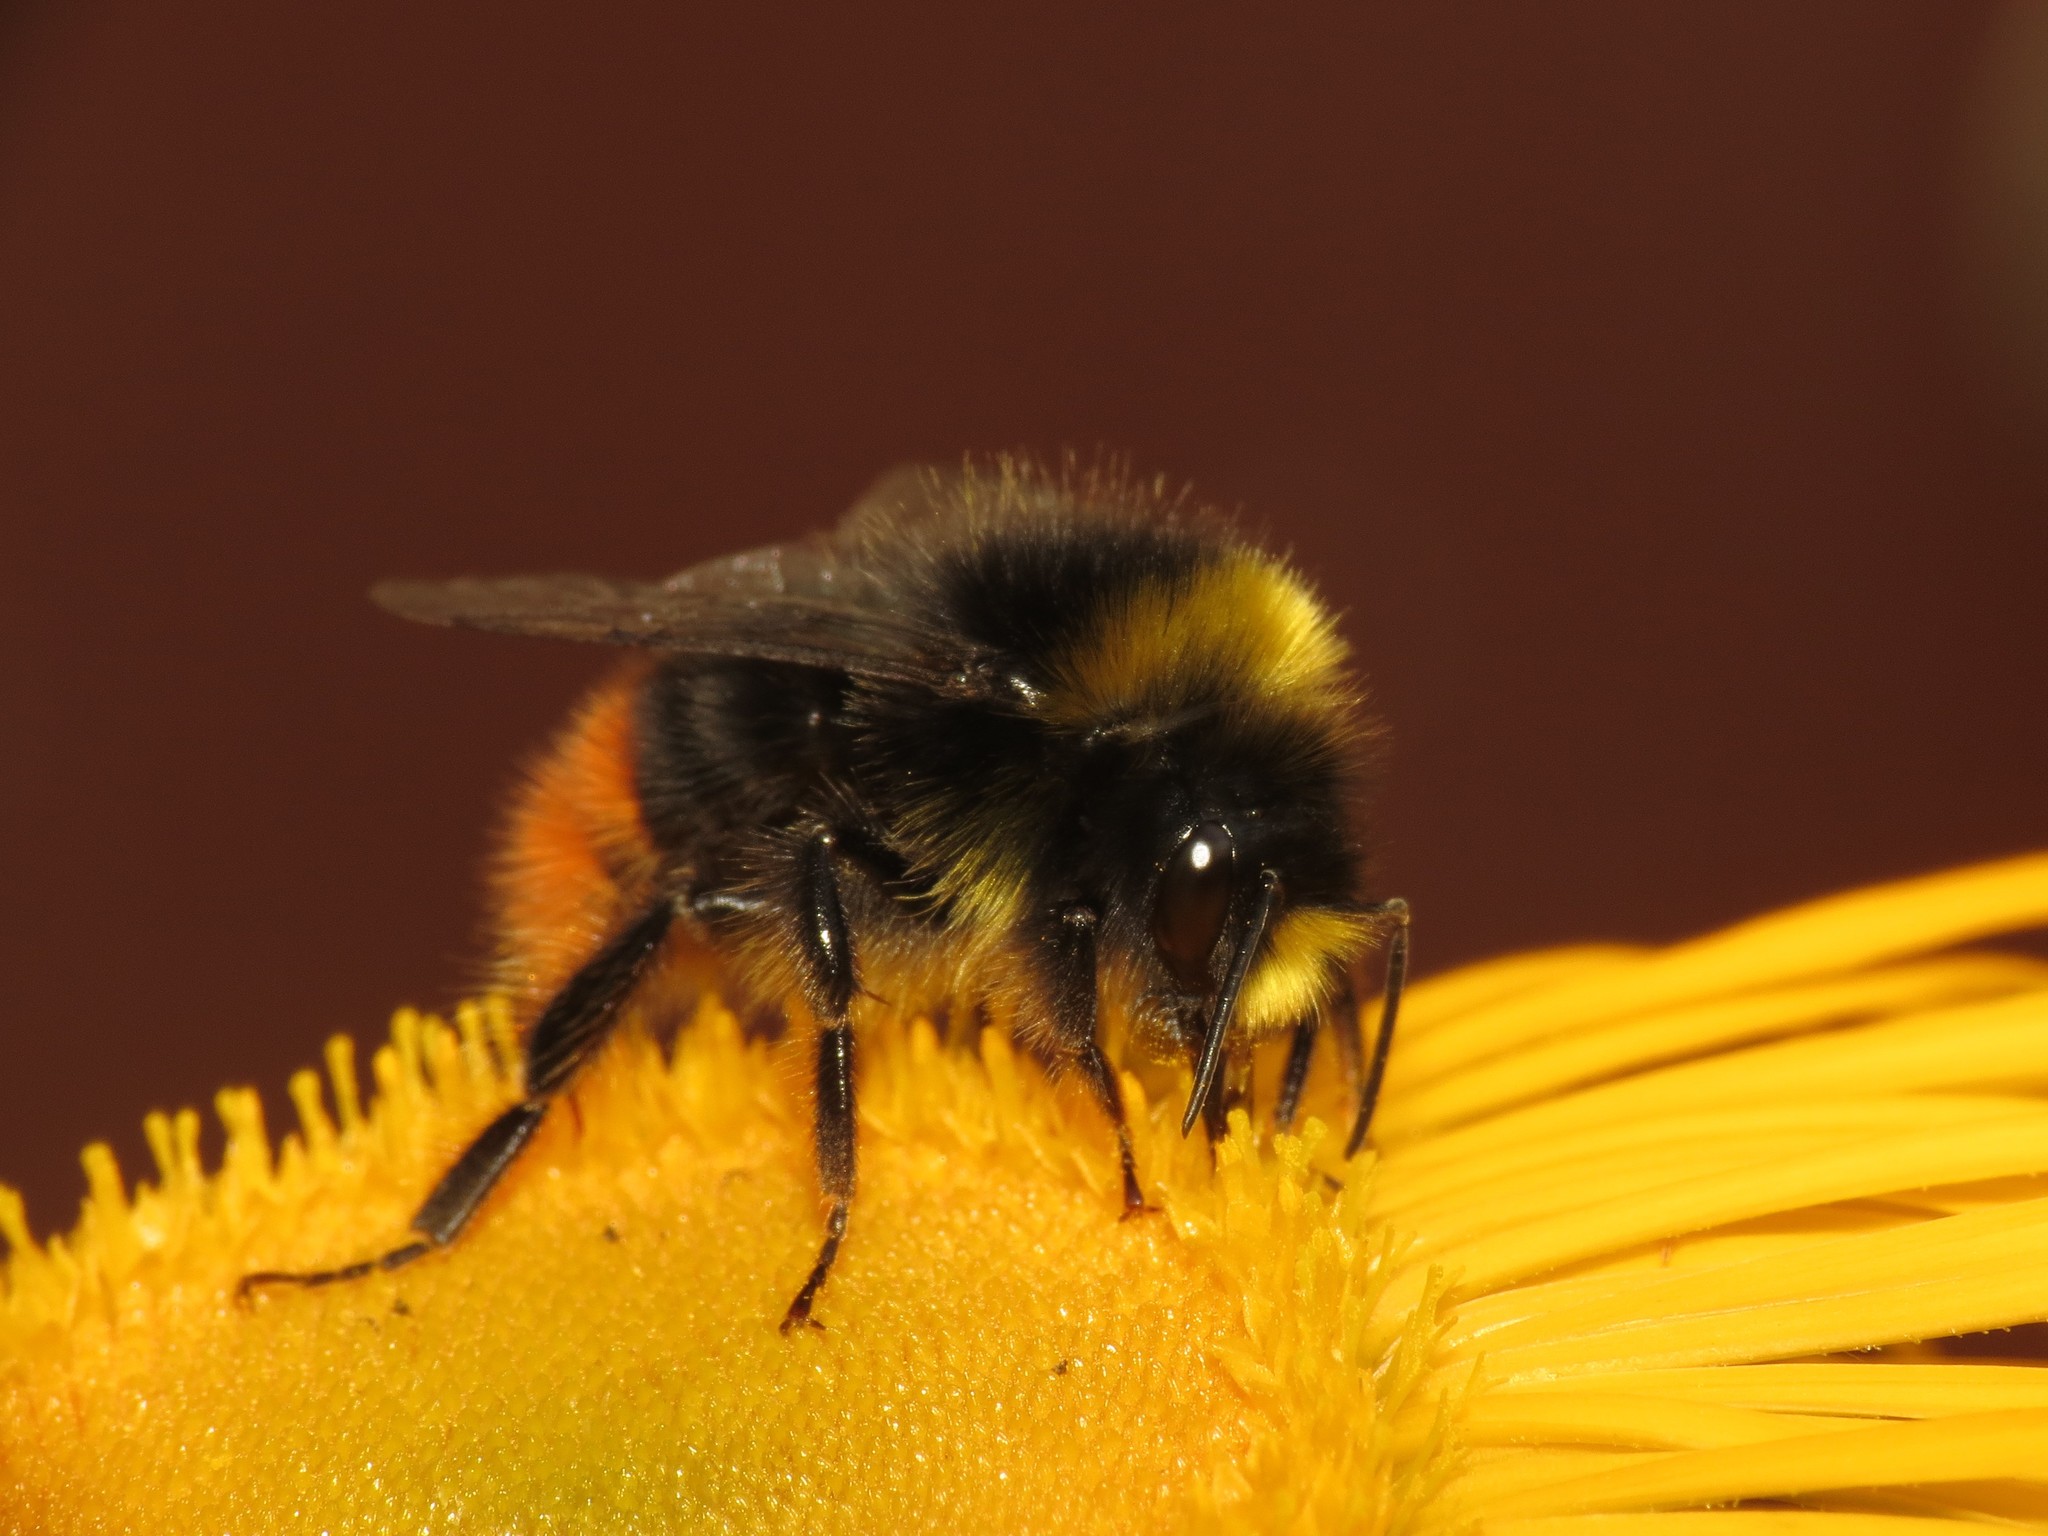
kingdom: Animalia
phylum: Arthropoda
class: Insecta
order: Hymenoptera
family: Apidae
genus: Bombus
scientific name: Bombus lapidarius
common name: Large red-tailed humble-bee
